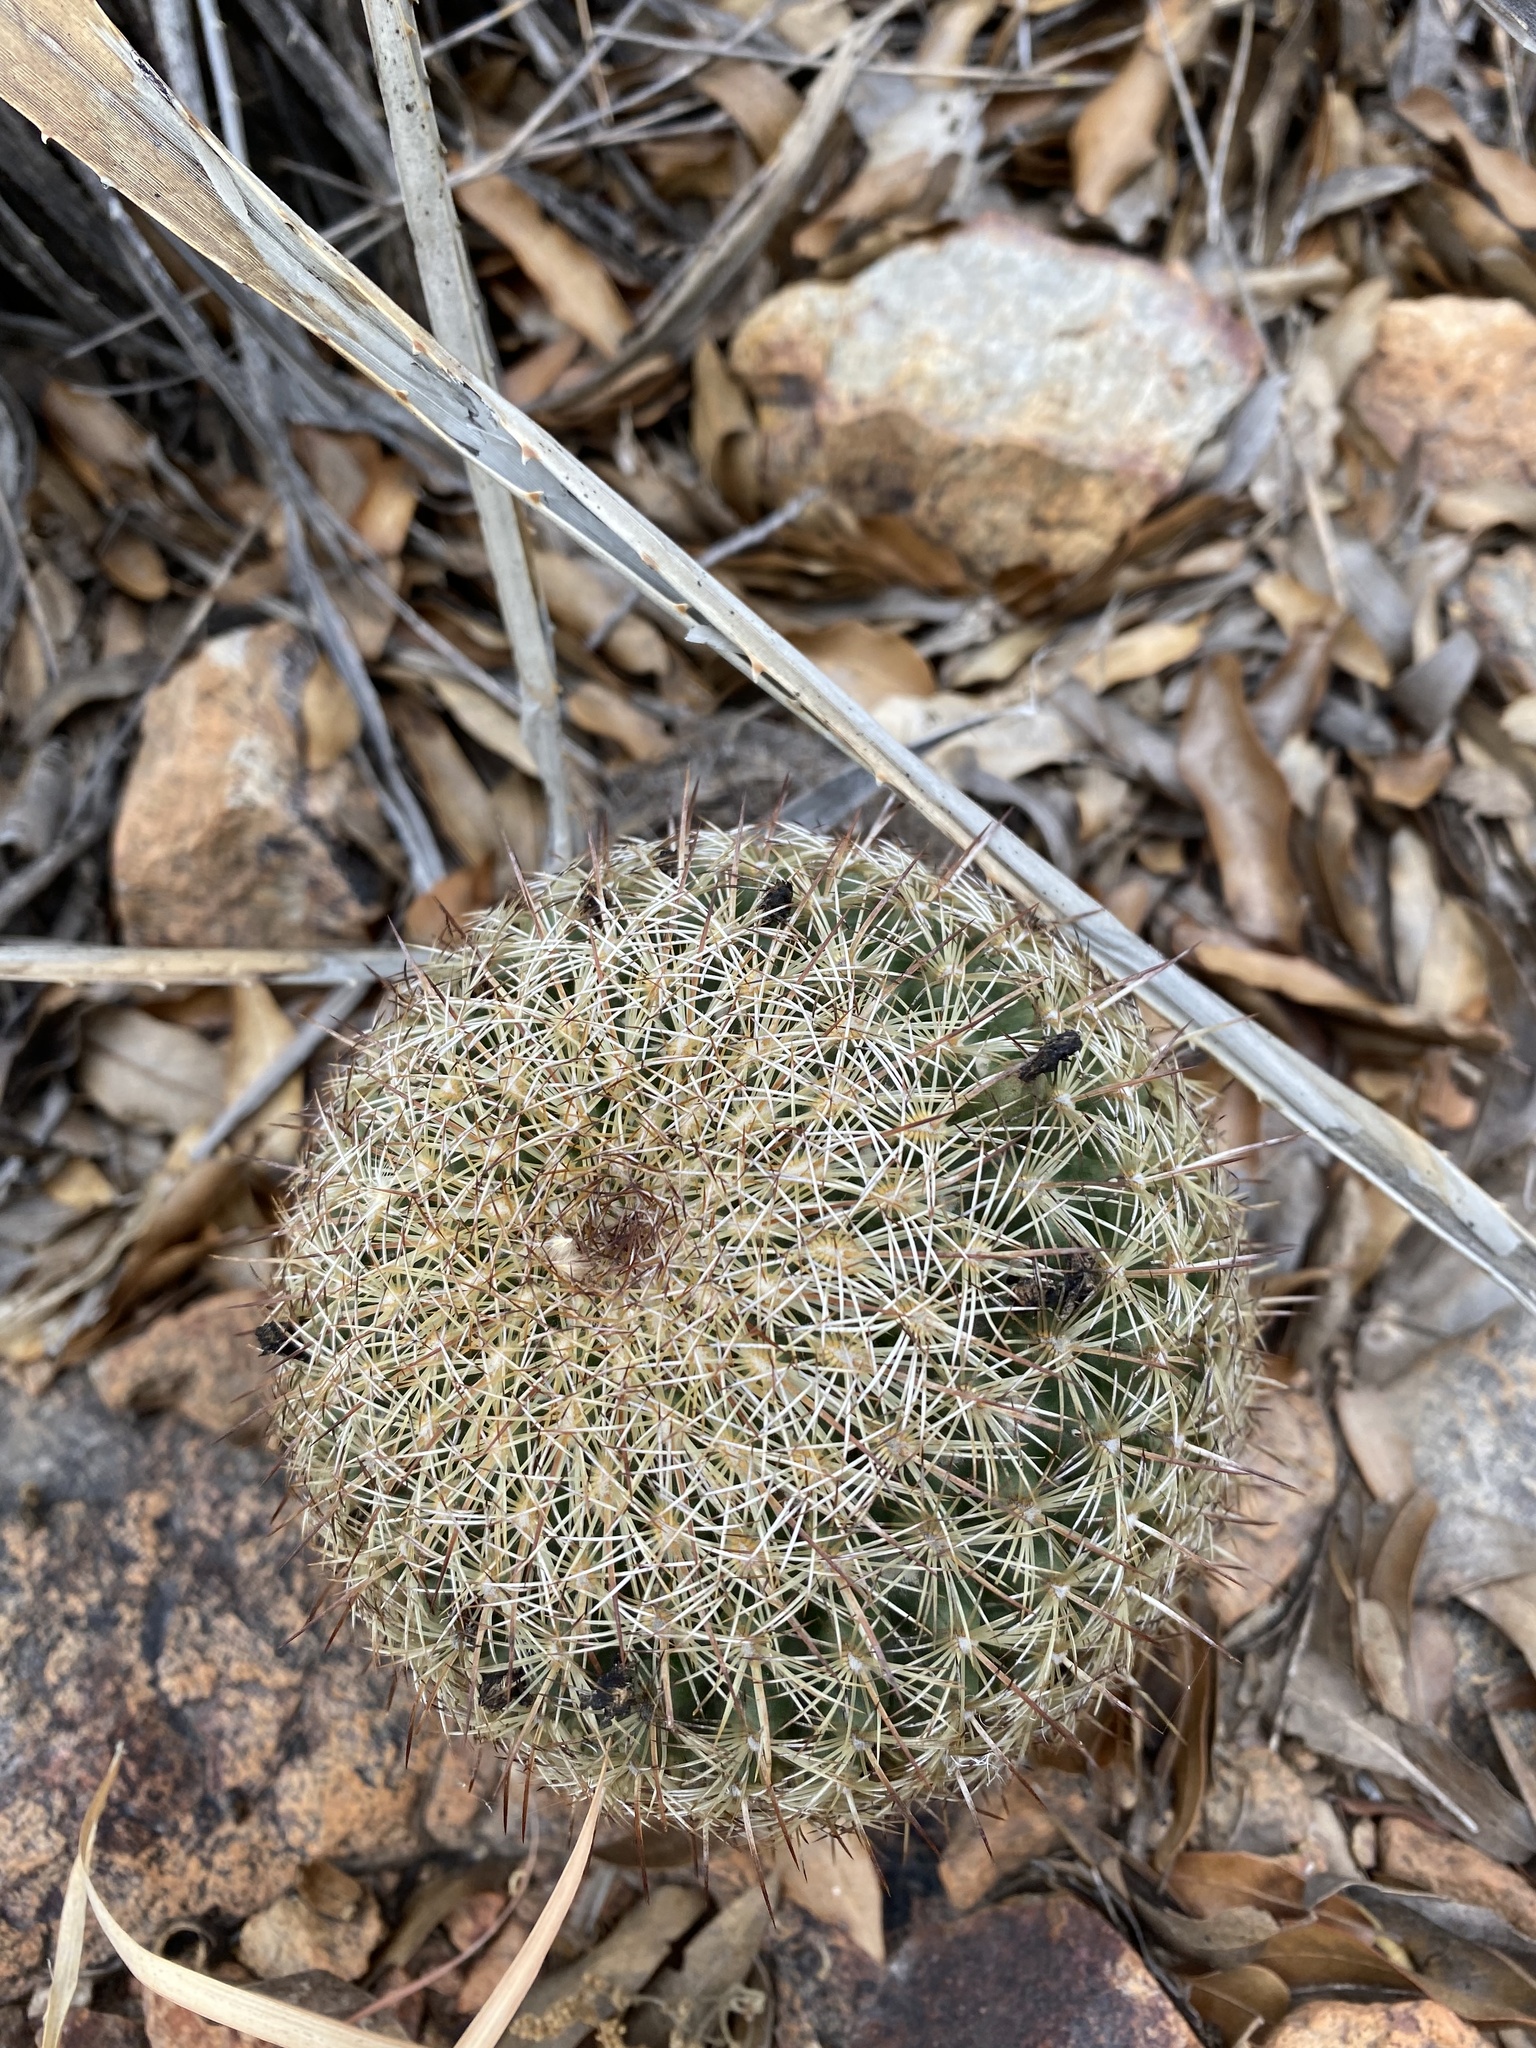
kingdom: Plantae
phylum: Tracheophyta
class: Magnoliopsida
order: Caryophyllales
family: Cactaceae
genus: Coryphantha
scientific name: Coryphantha recurvata
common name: Golden chested beehive
